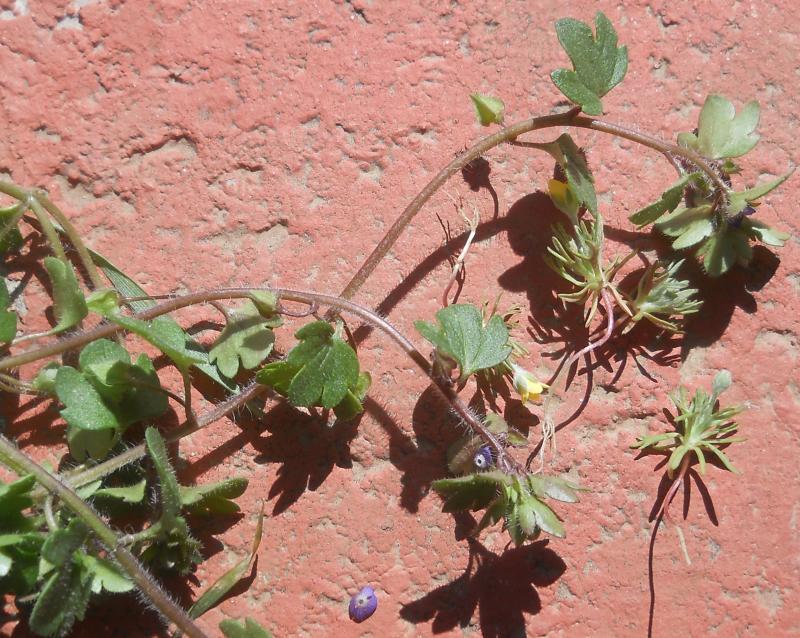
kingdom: Plantae
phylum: Tracheophyta
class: Magnoliopsida
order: Lamiales
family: Plantaginaceae
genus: Veronica
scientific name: Veronica hederifolia
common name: Ivy-leaved speedwell
